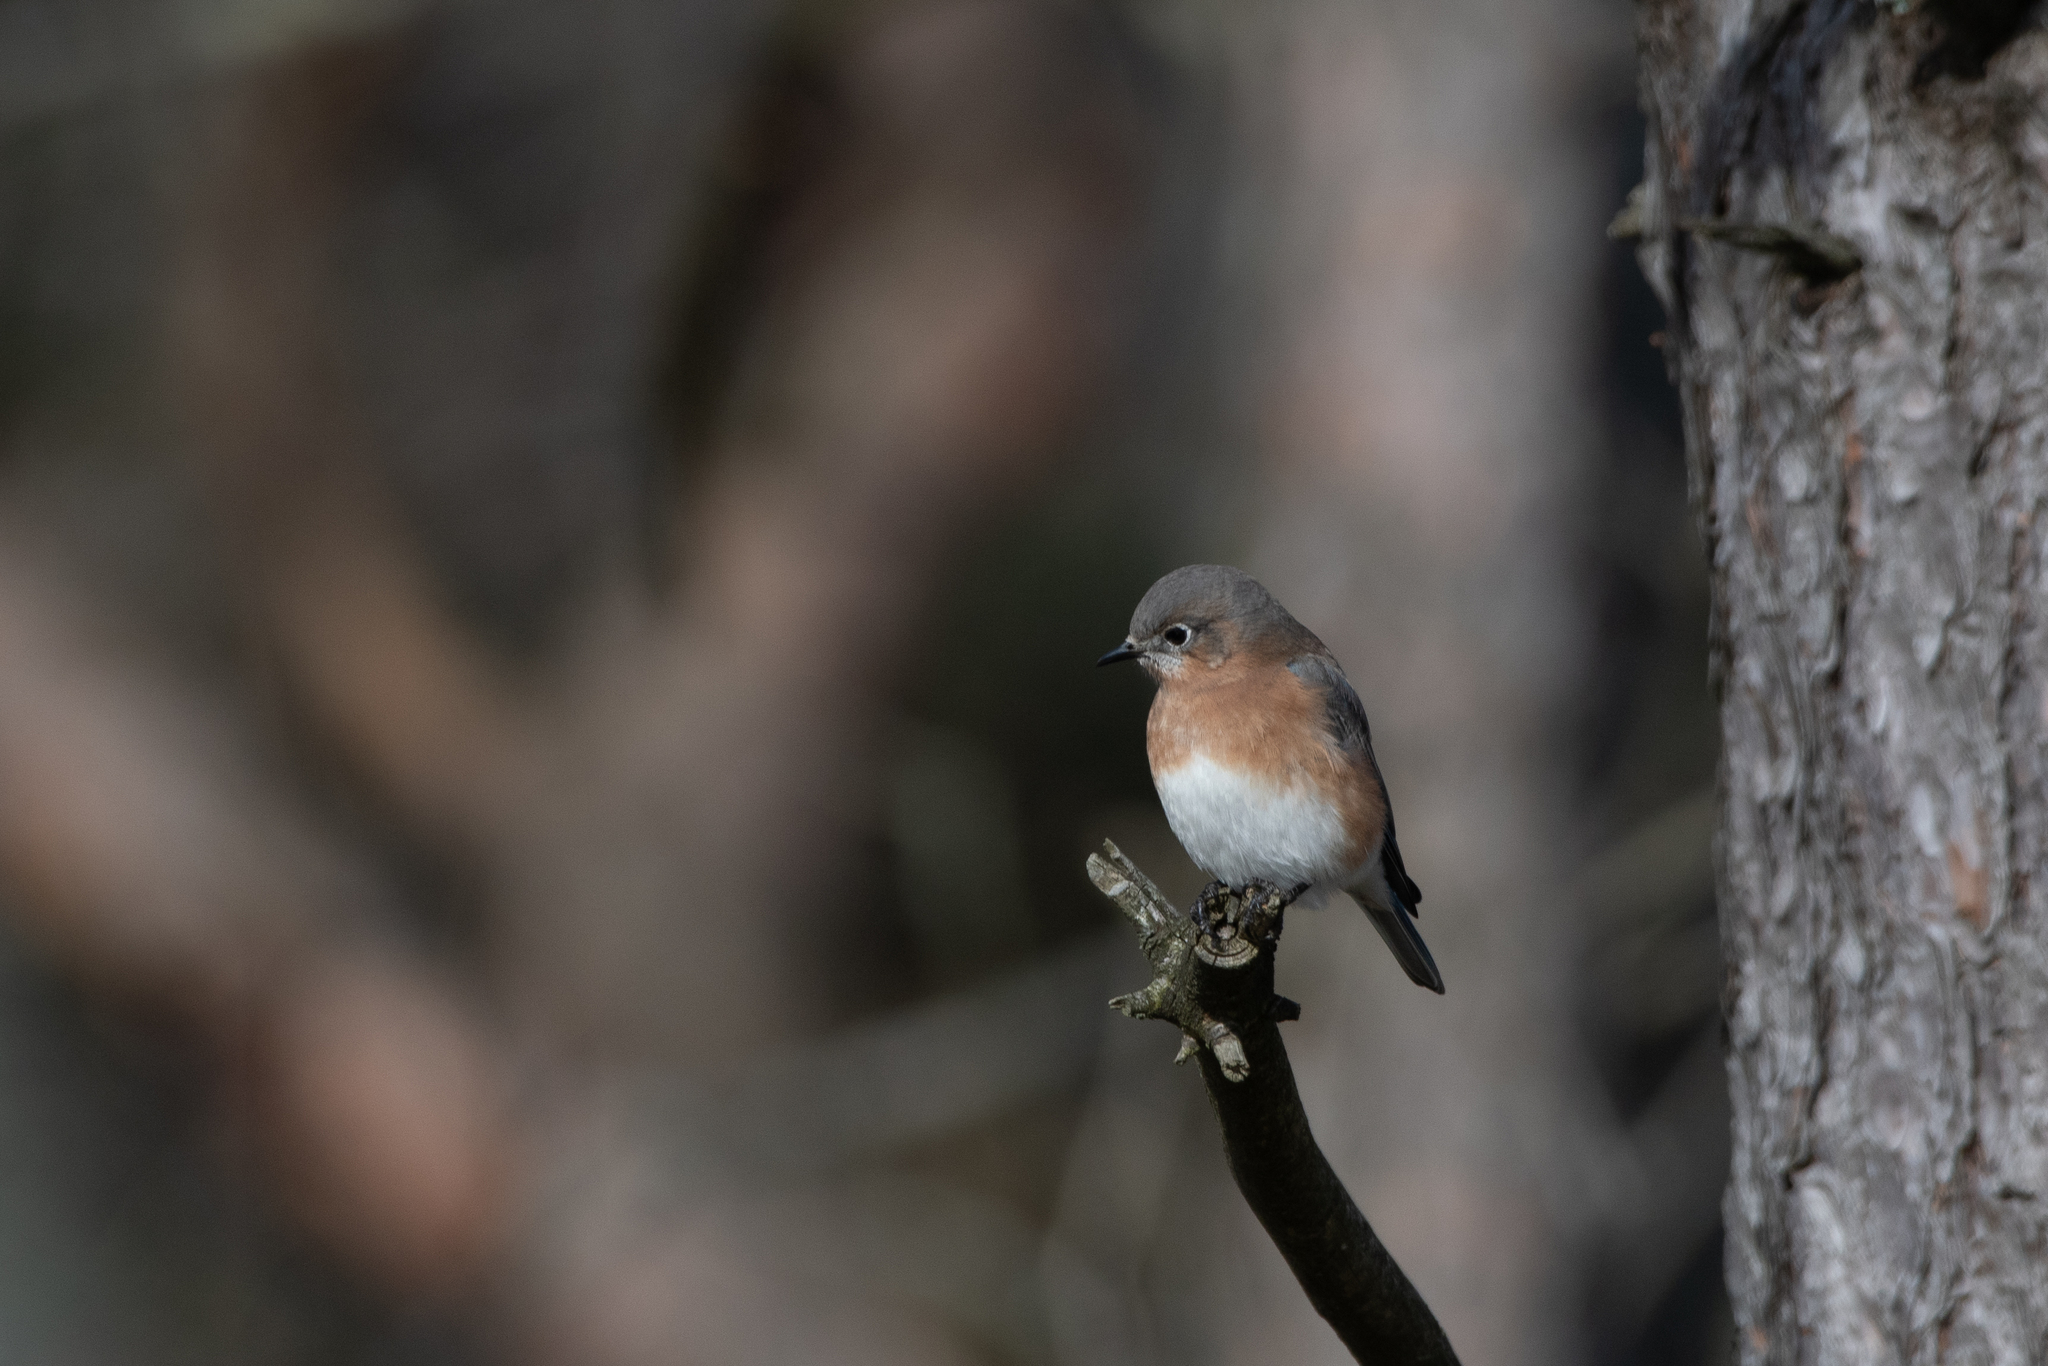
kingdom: Animalia
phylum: Chordata
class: Aves
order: Passeriformes
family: Turdidae
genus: Sialia
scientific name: Sialia sialis
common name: Eastern bluebird
